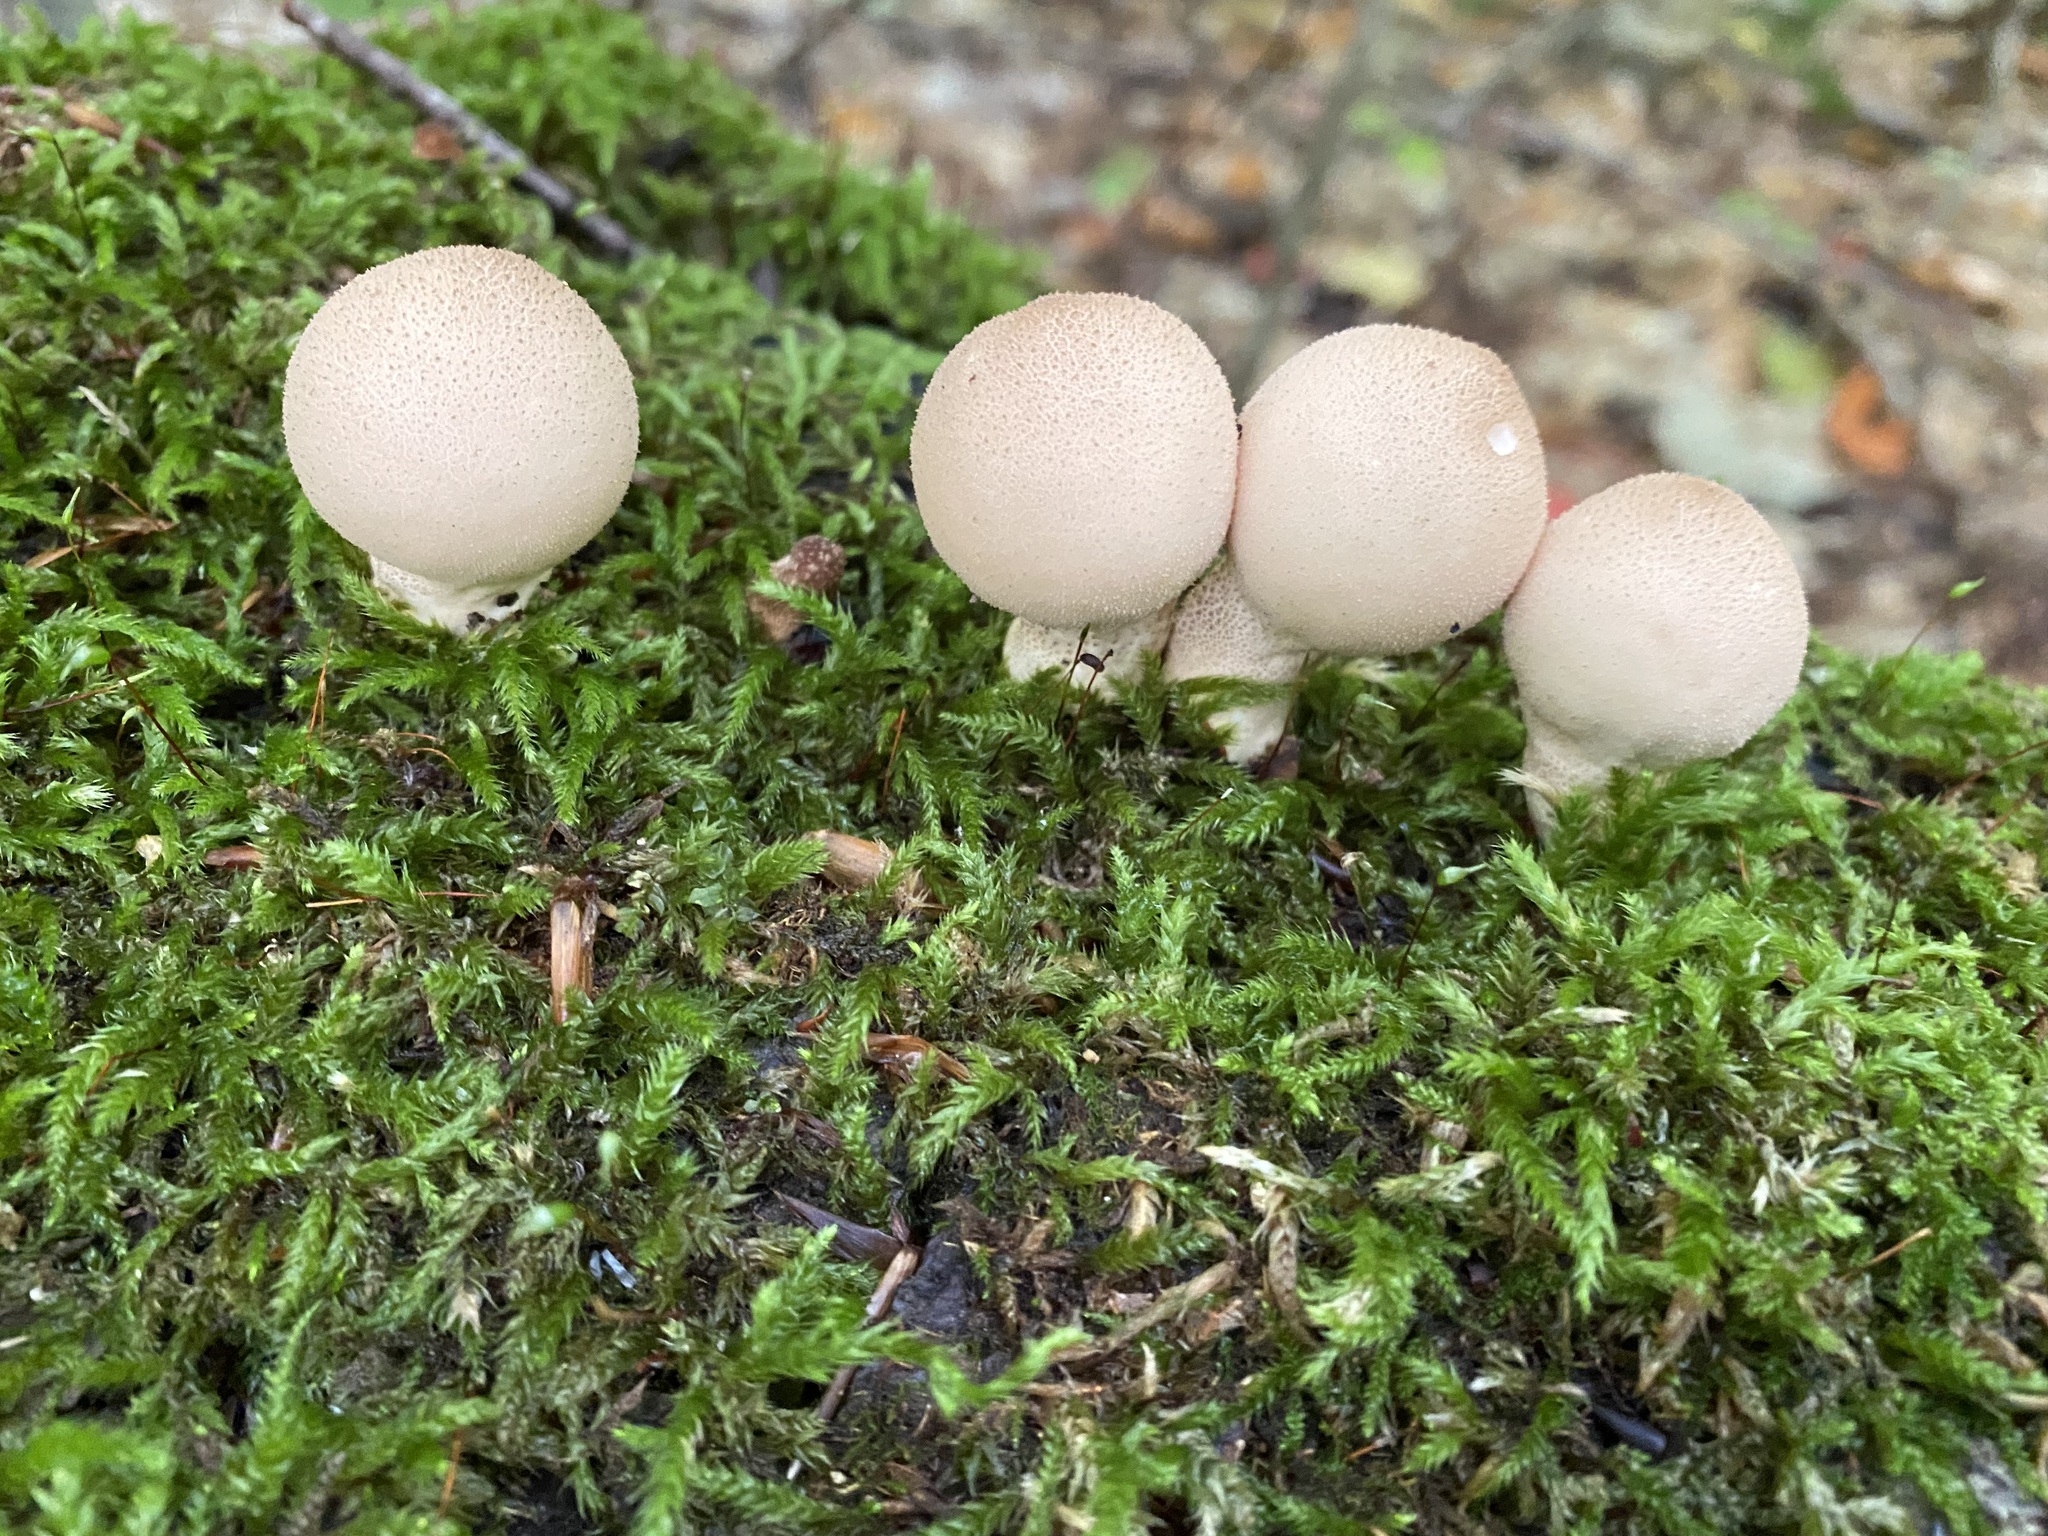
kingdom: Fungi
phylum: Basidiomycota
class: Agaricomycetes
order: Agaricales
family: Lycoperdaceae
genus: Apioperdon
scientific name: Apioperdon pyriforme
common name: Pear-shaped puffball
